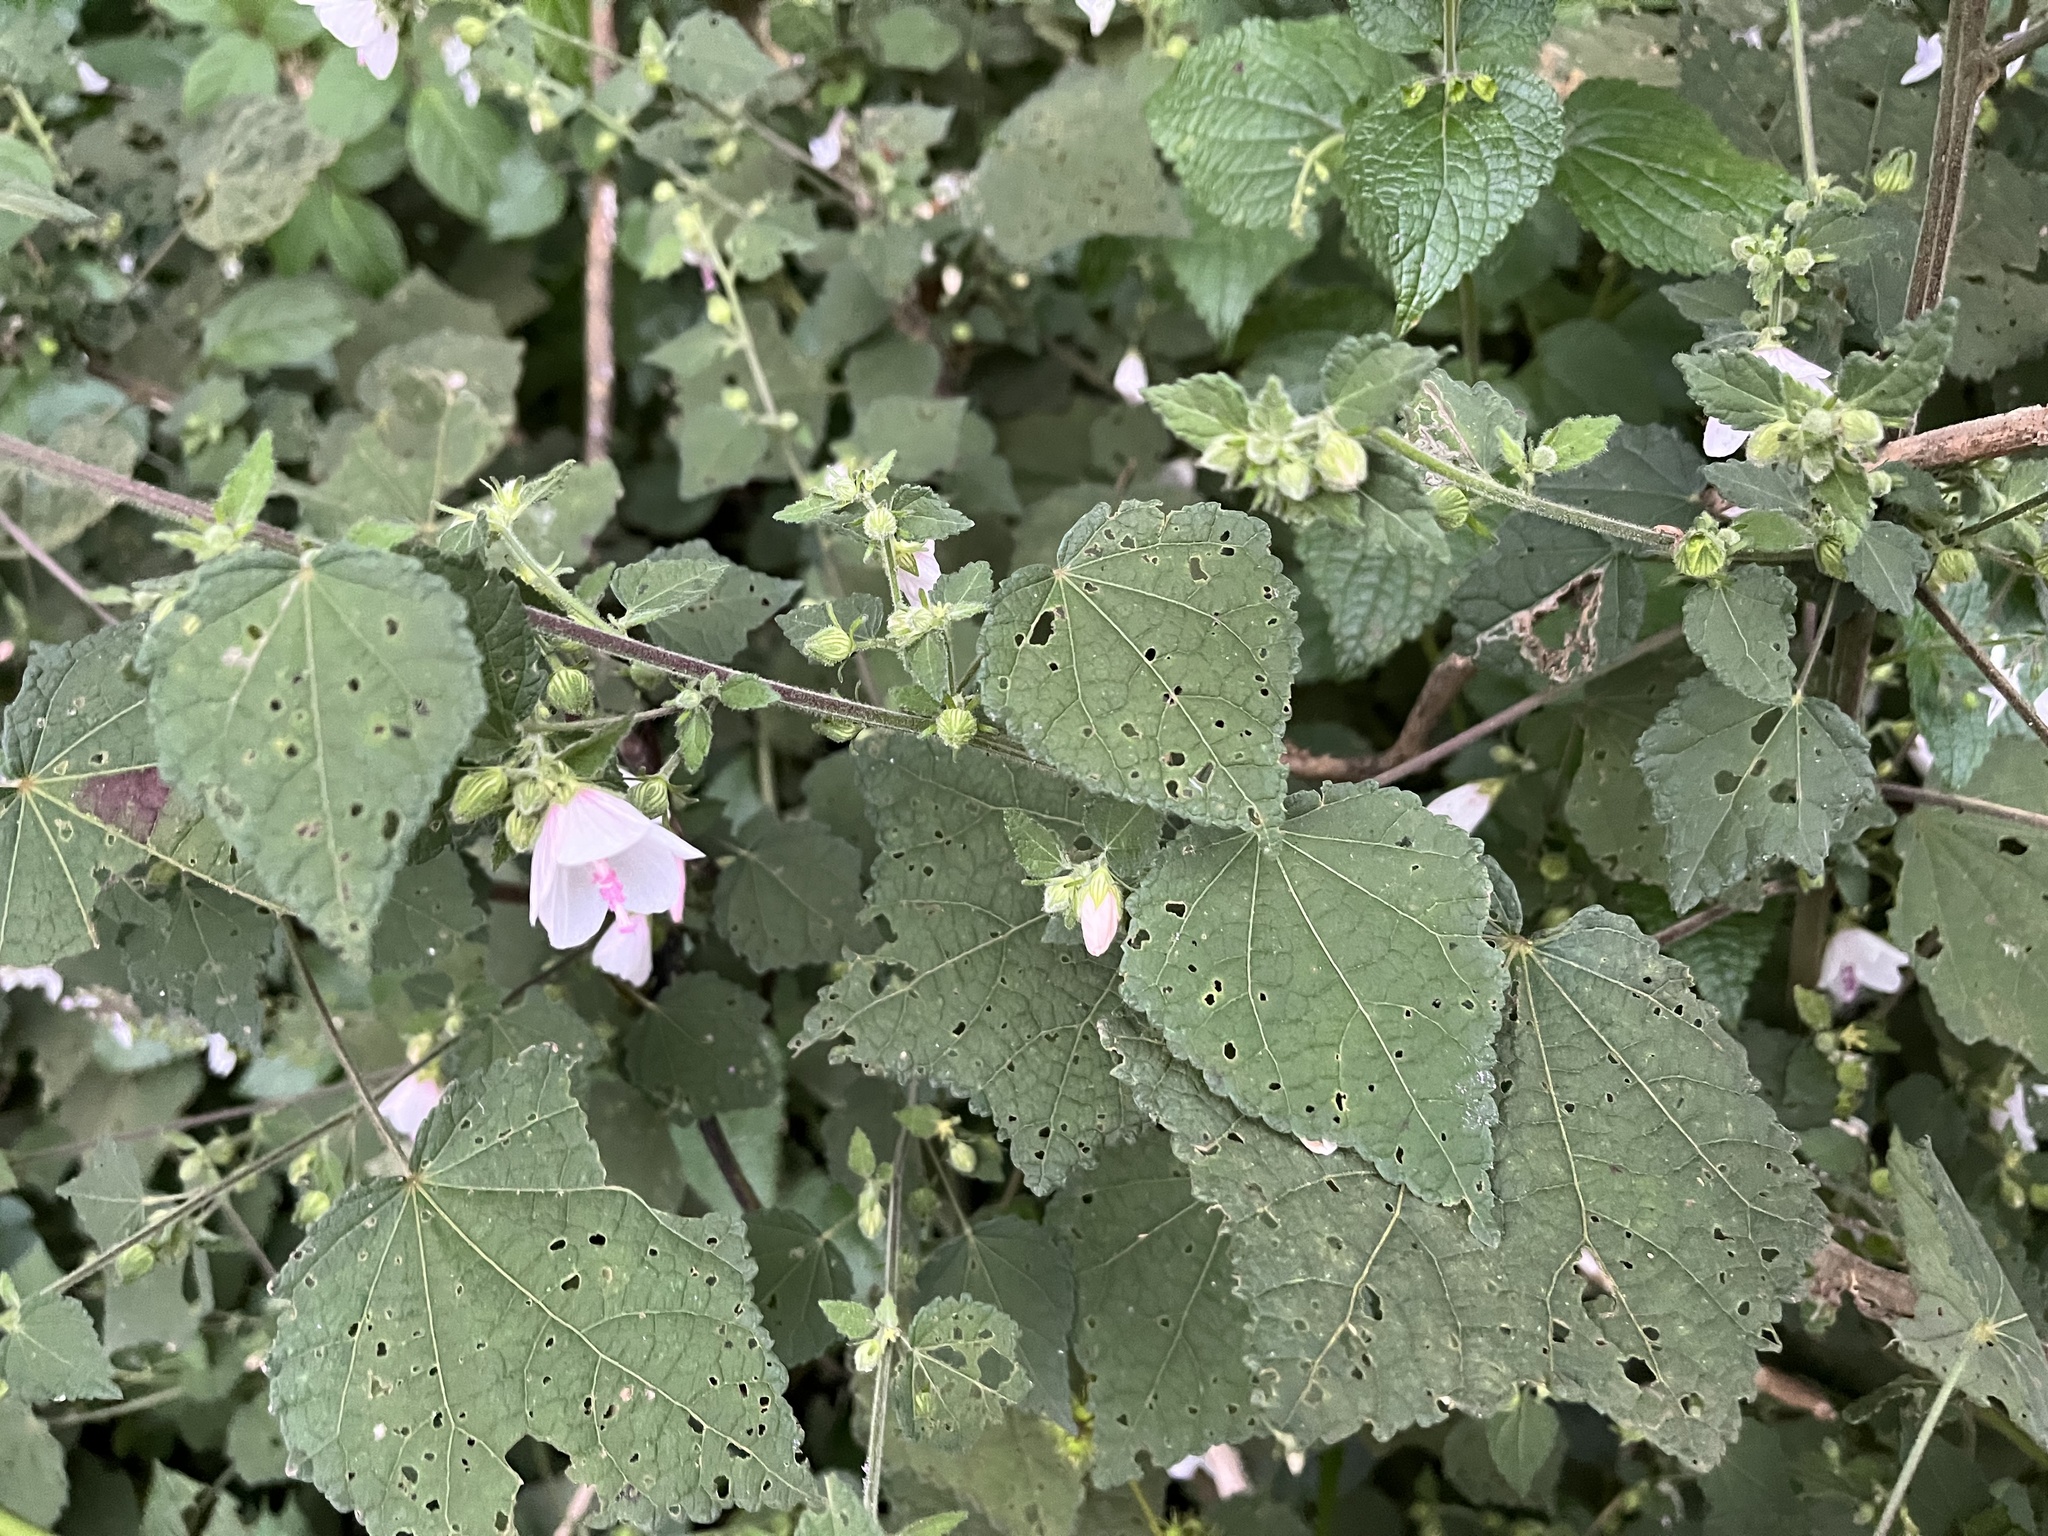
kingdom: Plantae
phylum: Tracheophyta
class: Magnoliopsida
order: Malvales
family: Malvaceae
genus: Pavonia
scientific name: Pavonia columella
